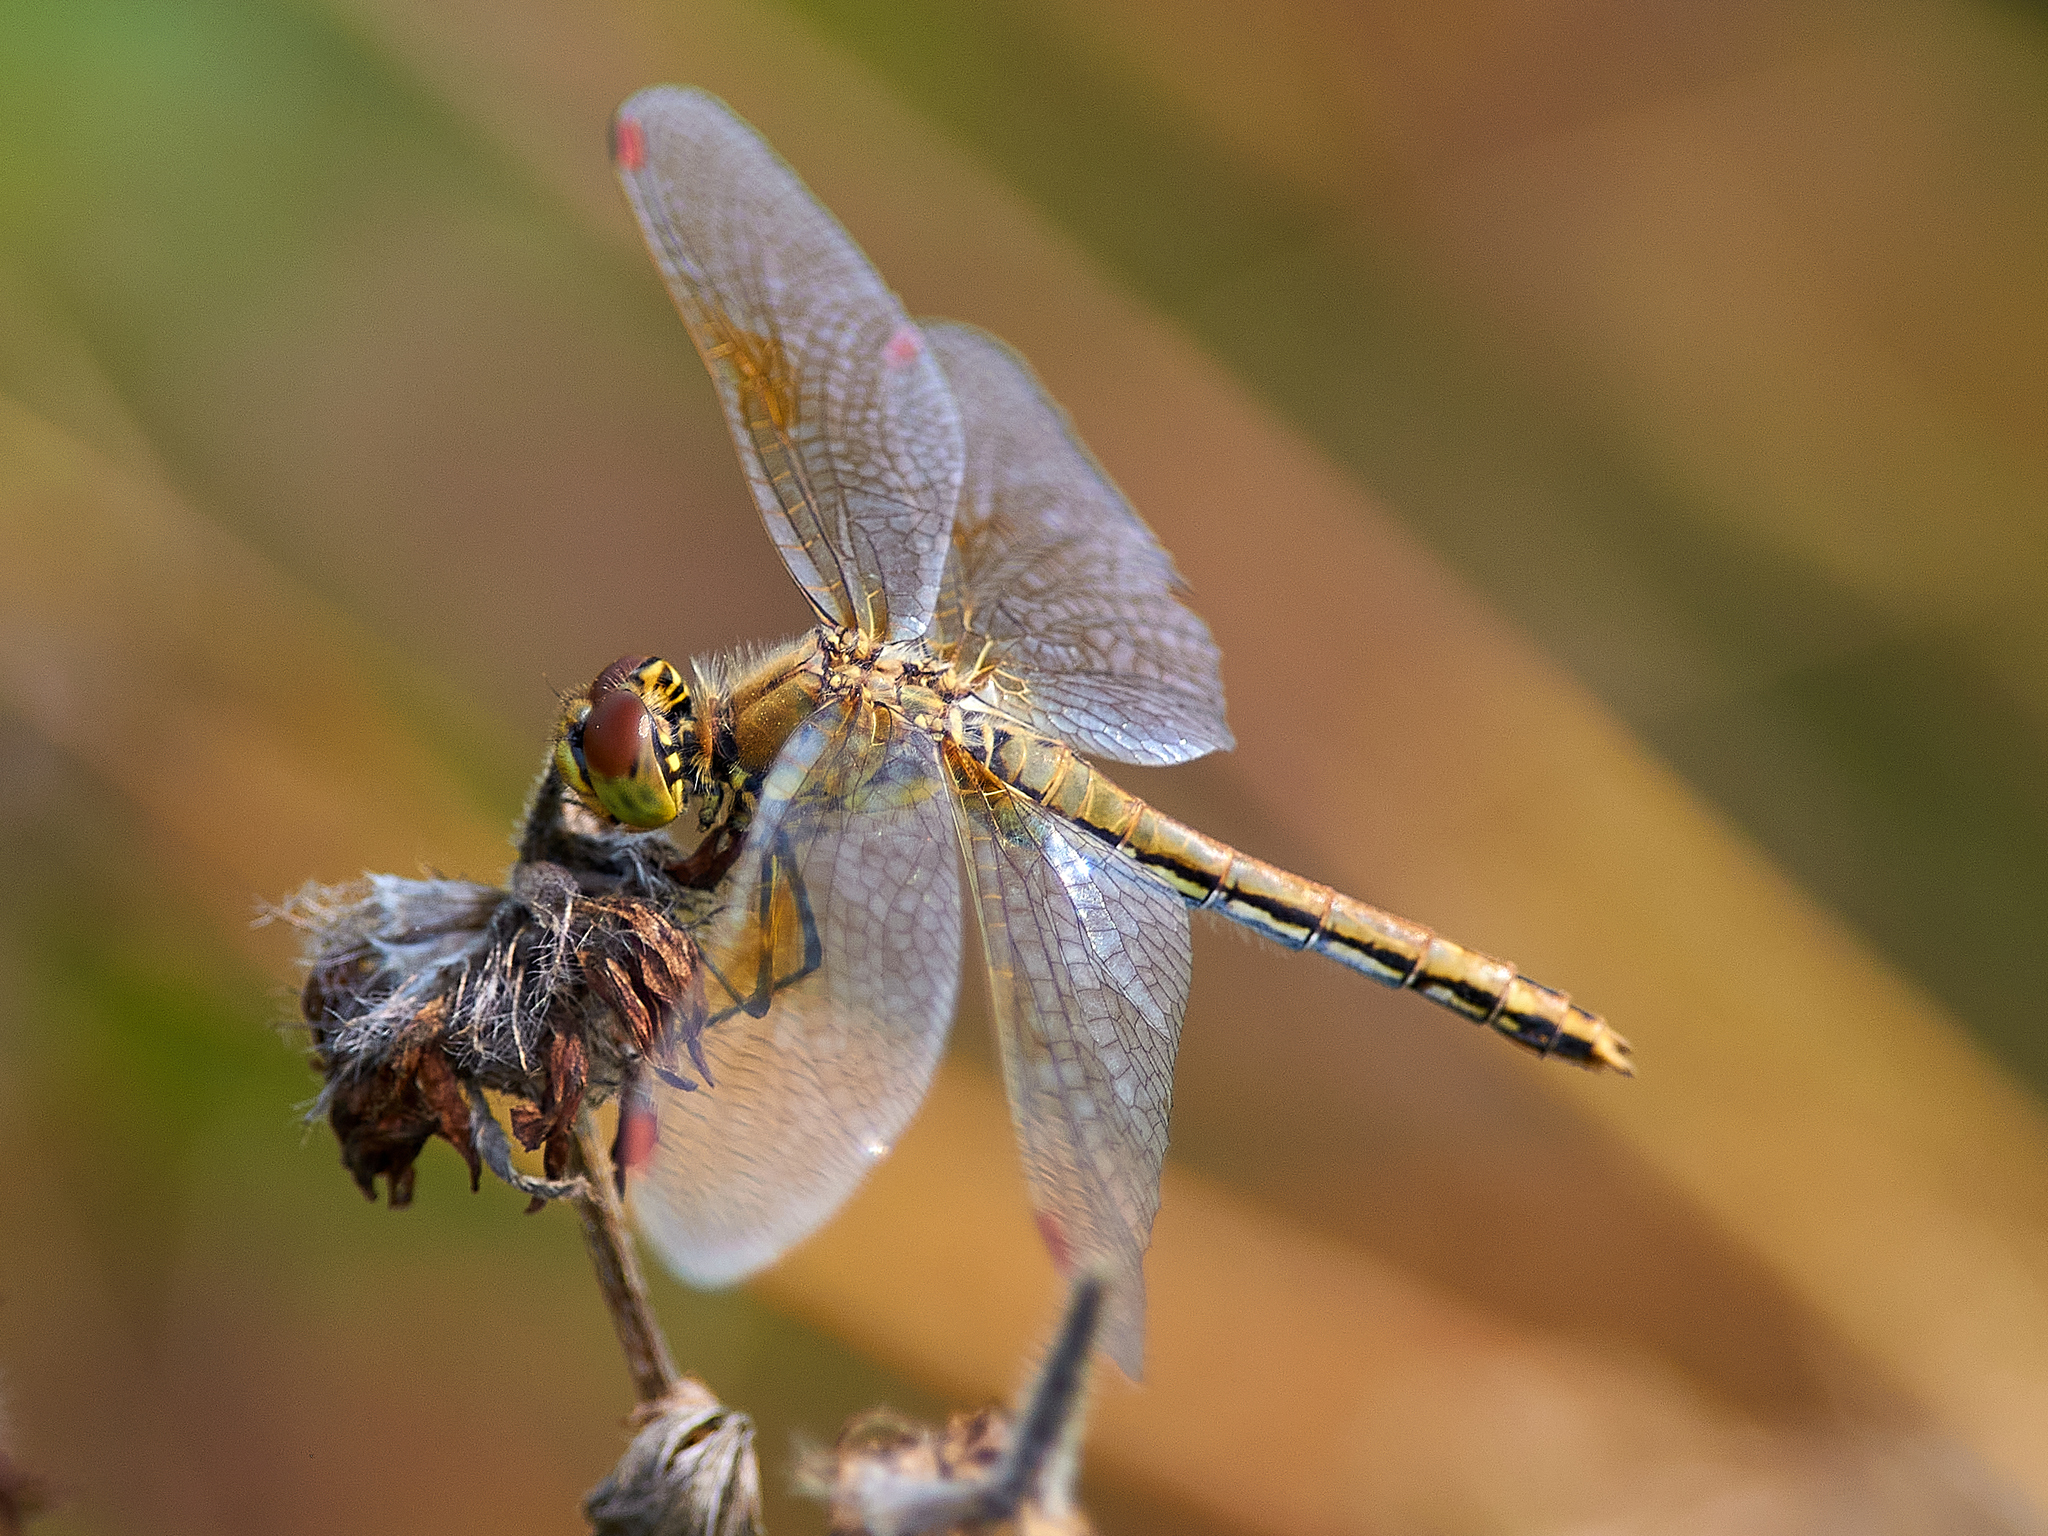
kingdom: Animalia
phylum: Arthropoda
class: Insecta
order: Odonata
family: Libellulidae
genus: Sympetrum
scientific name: Sympetrum flaveolum
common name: Yellow-winged darter
